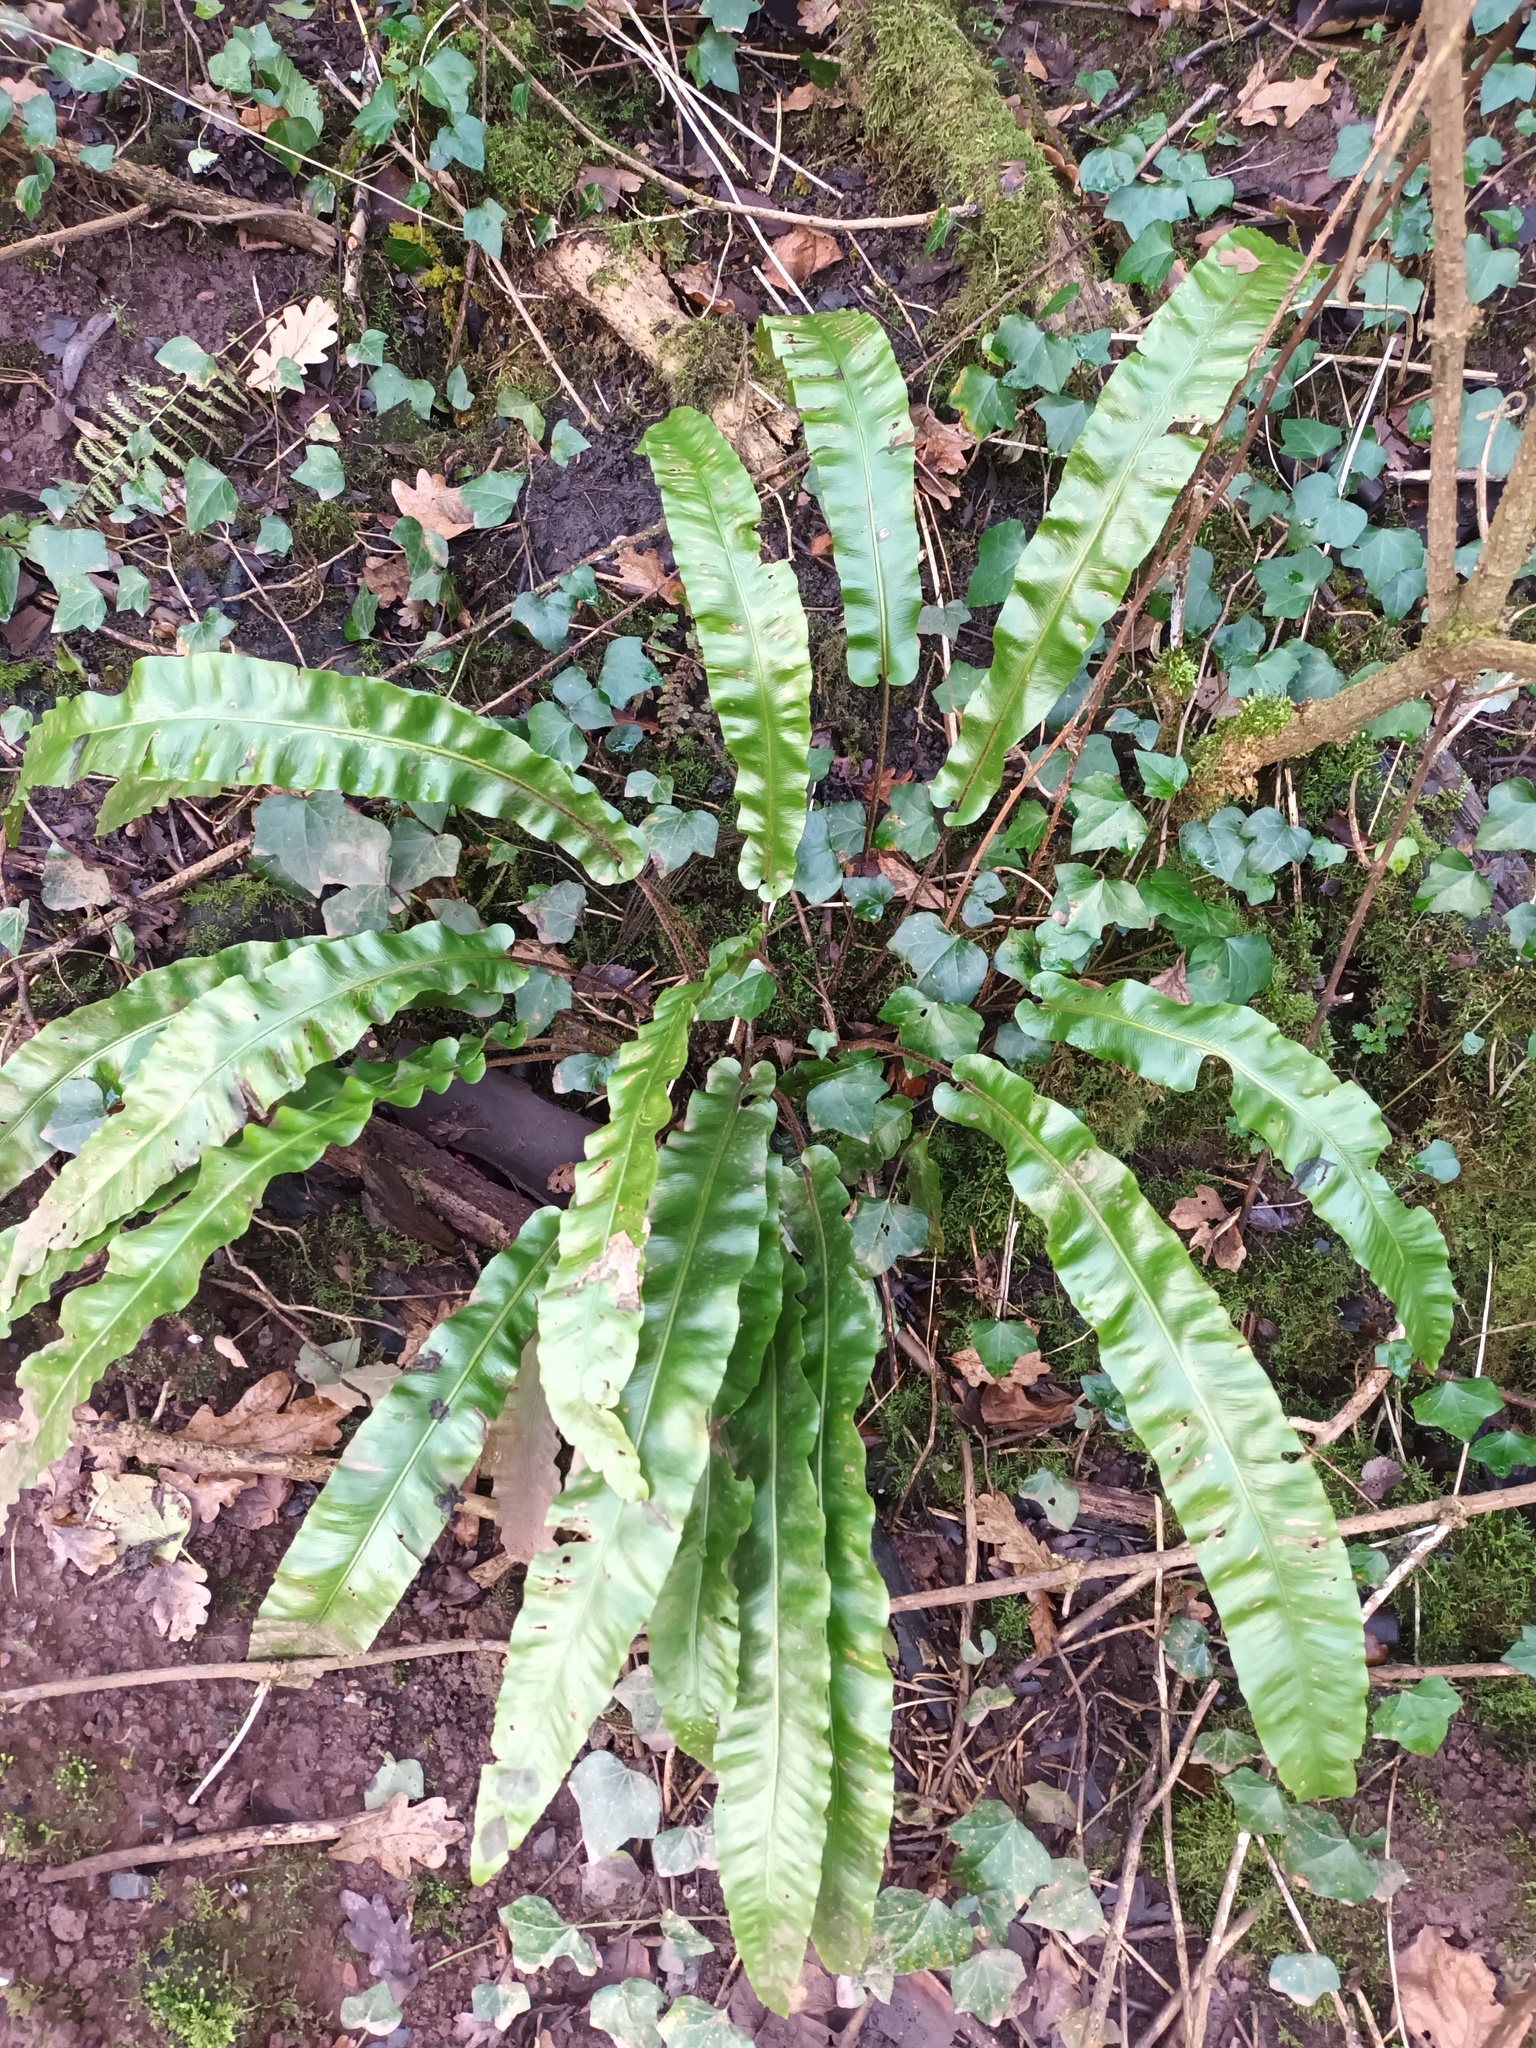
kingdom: Plantae
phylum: Tracheophyta
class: Polypodiopsida
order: Polypodiales
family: Aspleniaceae
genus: Asplenium
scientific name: Asplenium scolopendrium
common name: Hart's-tongue fern
